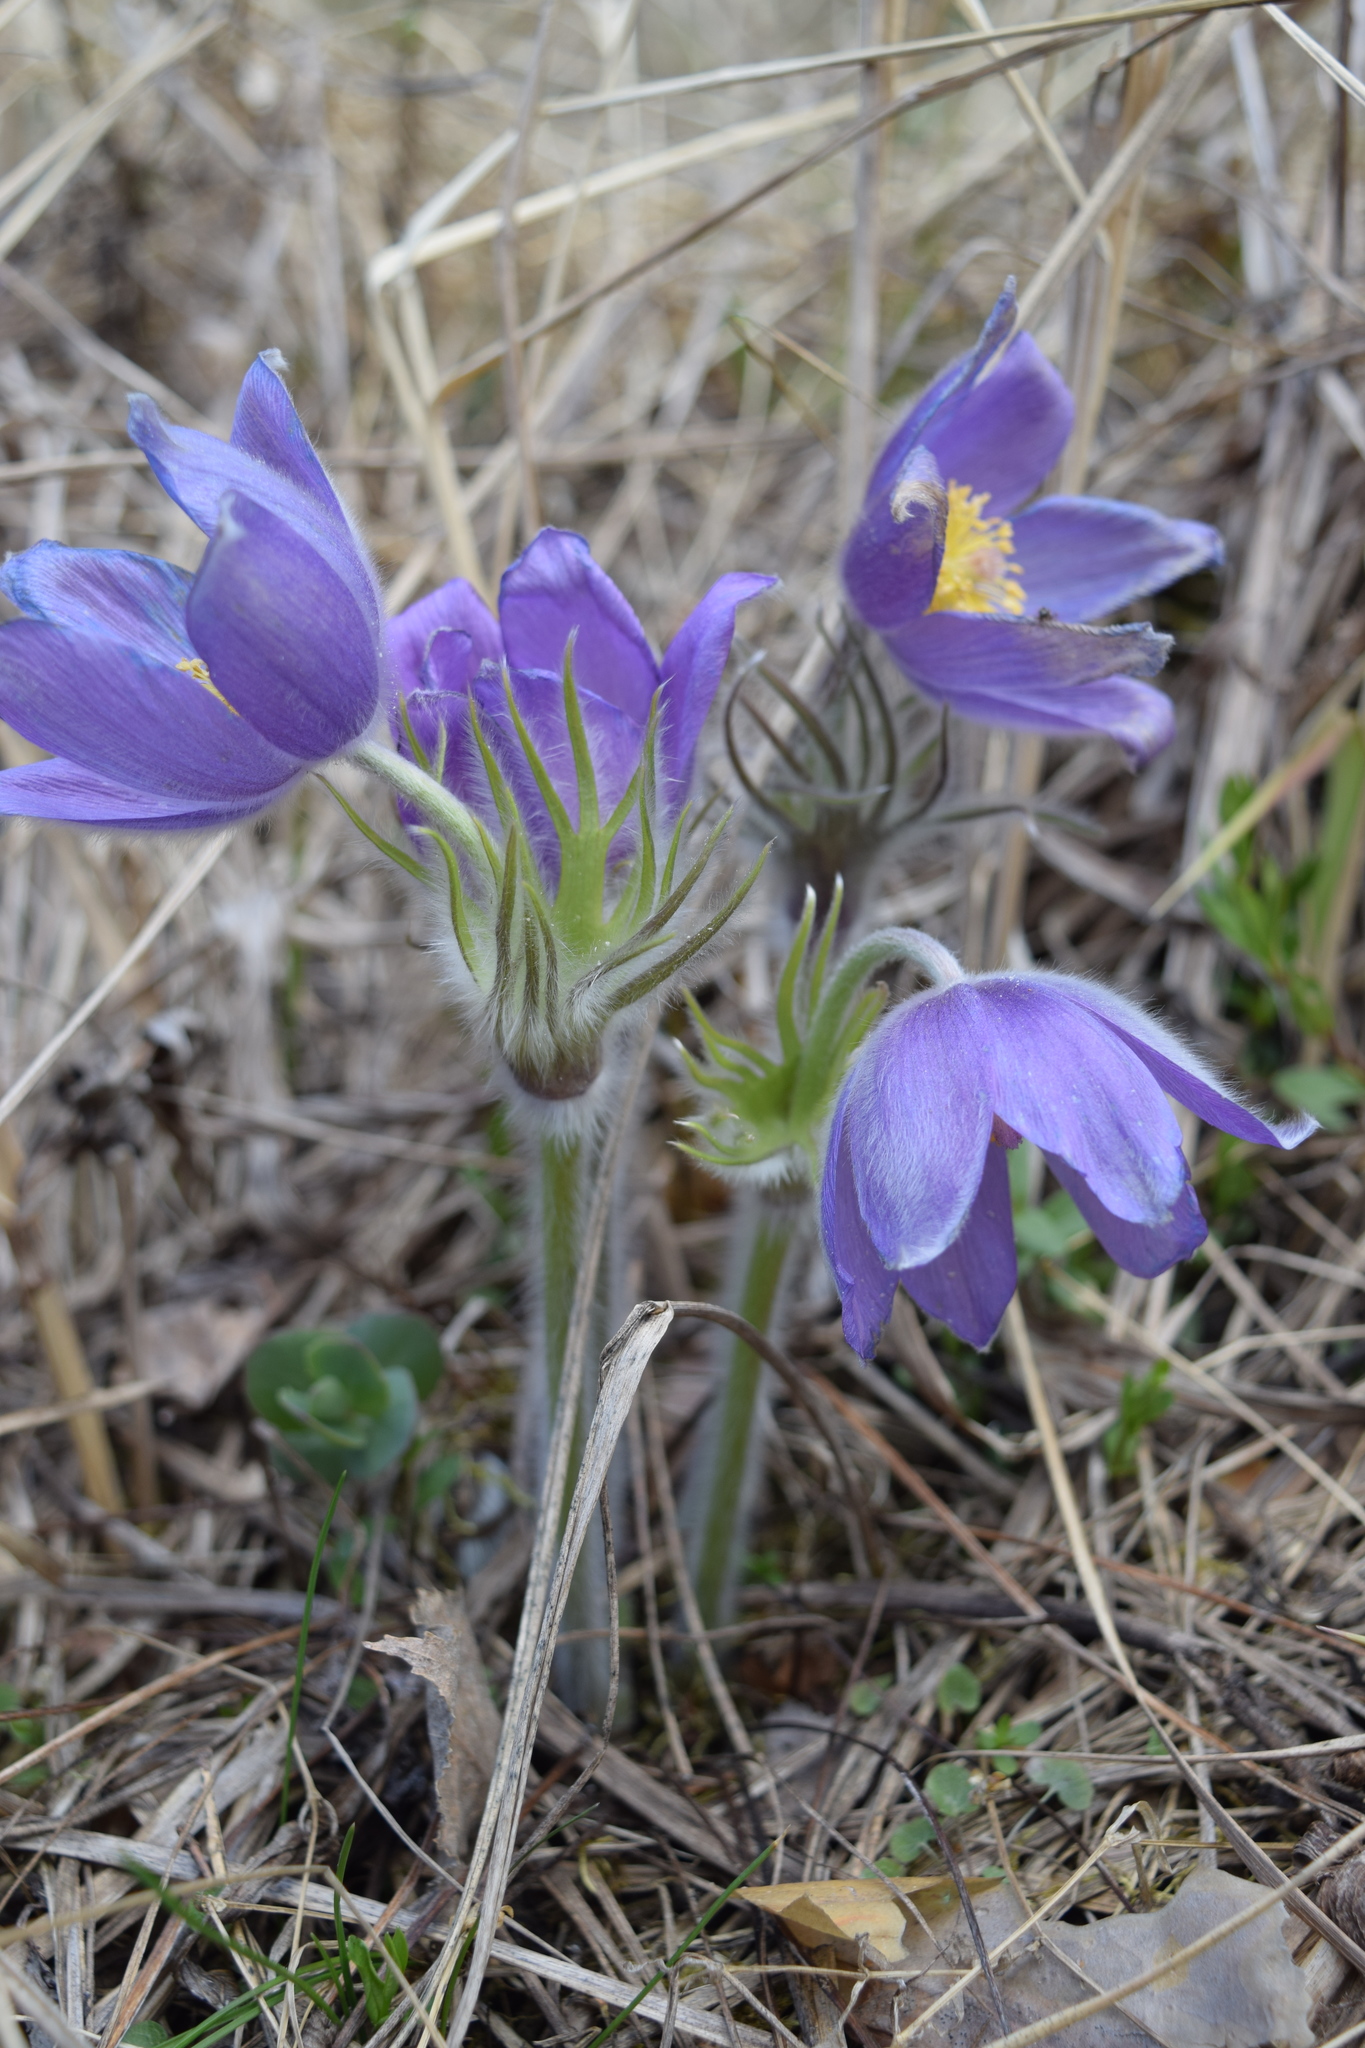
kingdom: Plantae
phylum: Tracheophyta
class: Magnoliopsida
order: Ranunculales
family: Ranunculaceae
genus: Pulsatilla
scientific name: Pulsatilla patens
